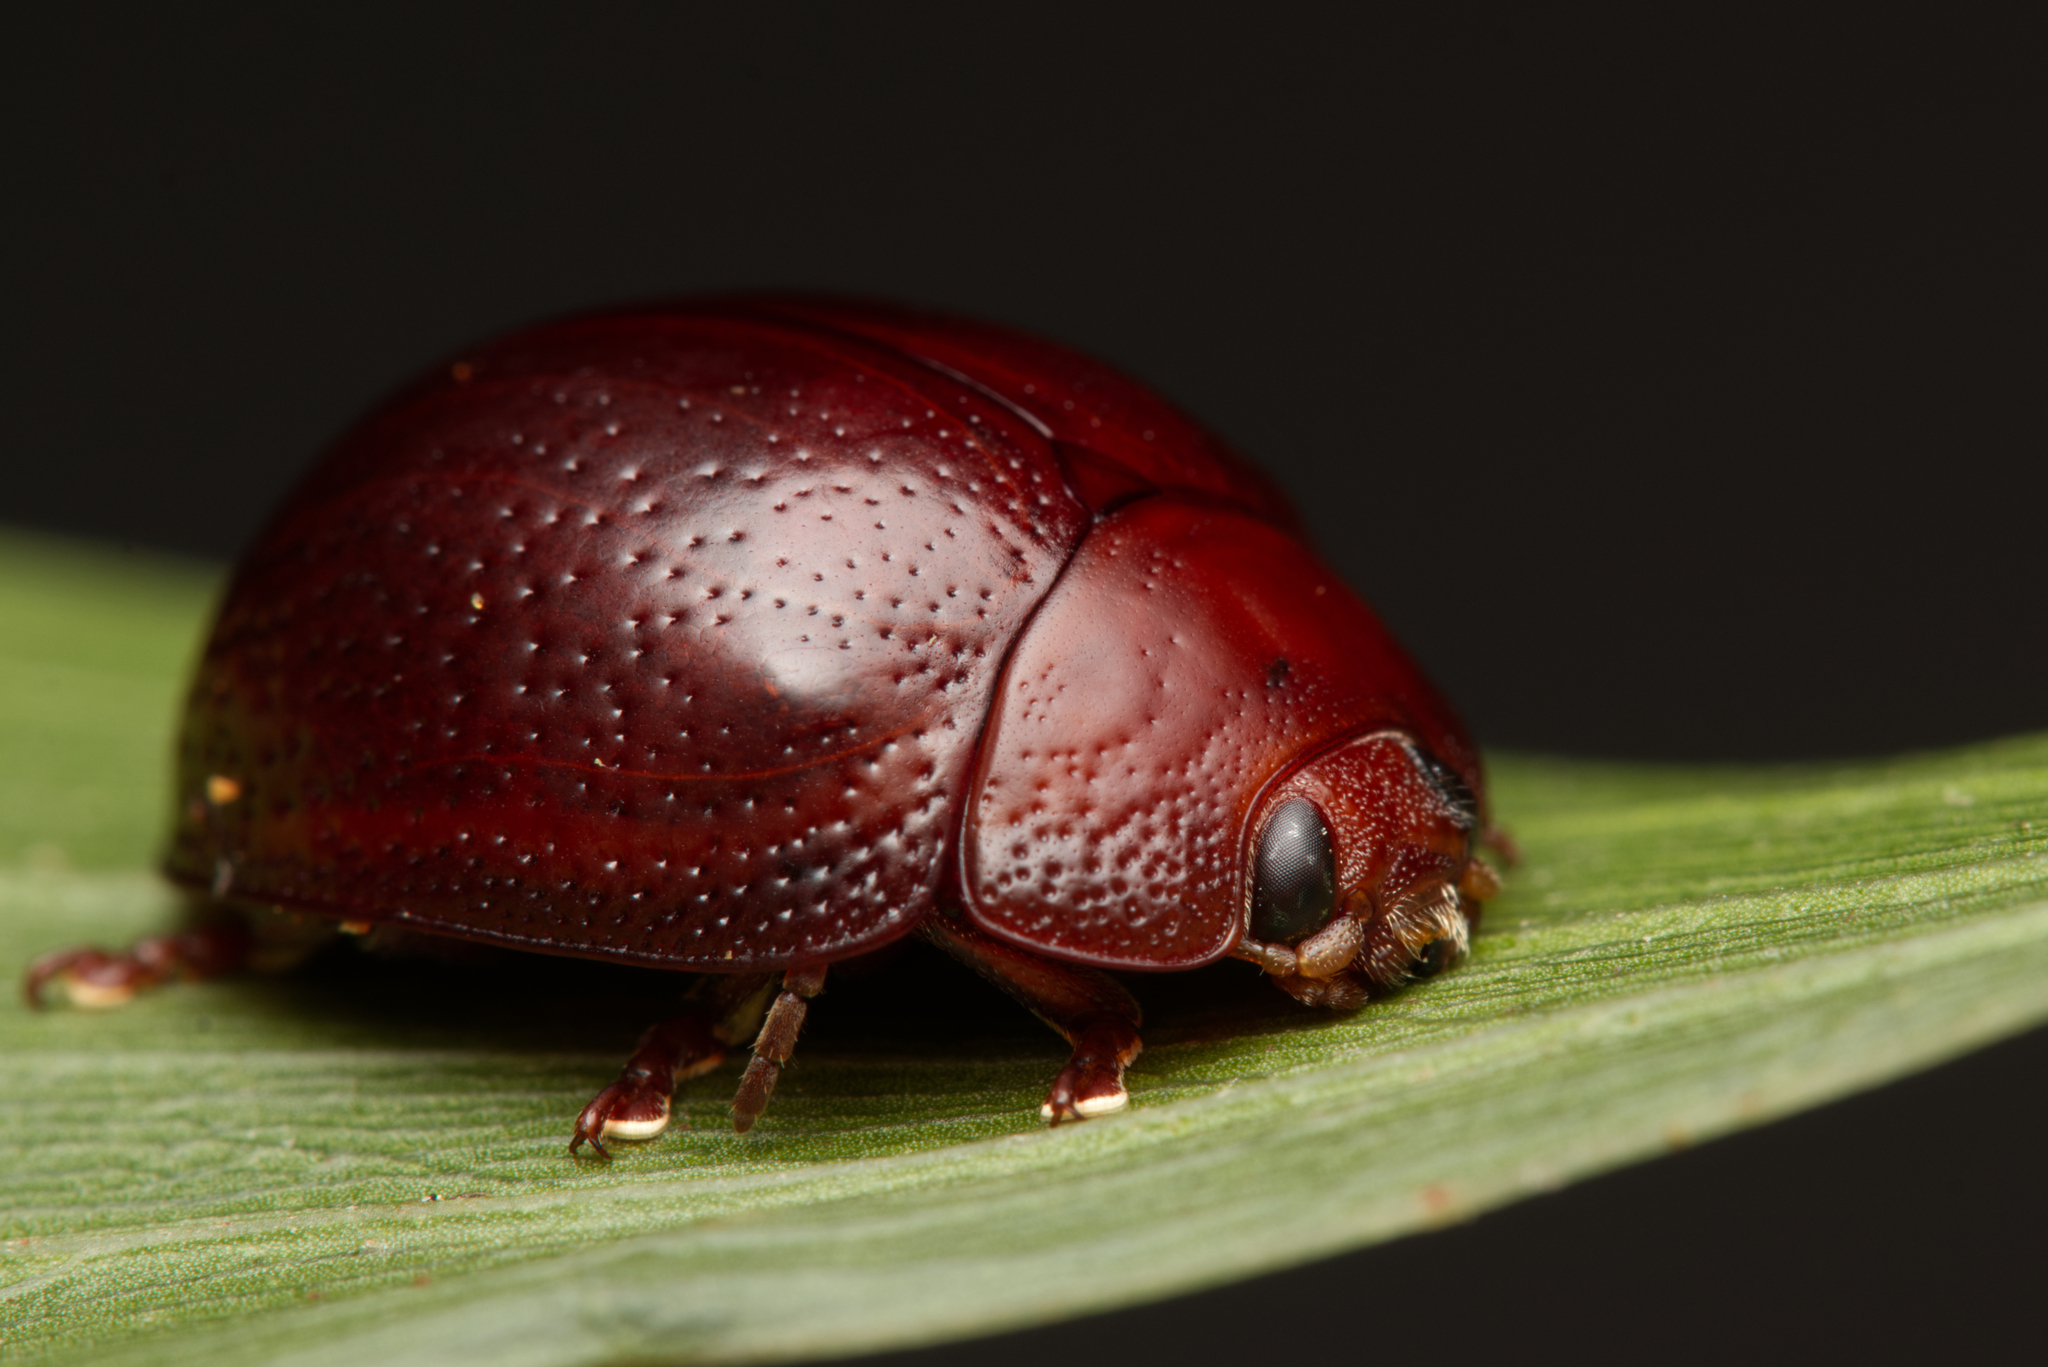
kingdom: Animalia
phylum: Arthropoda
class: Insecta
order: Coleoptera
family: Chrysomelidae
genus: Dicranosterna
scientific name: Dicranosterna
